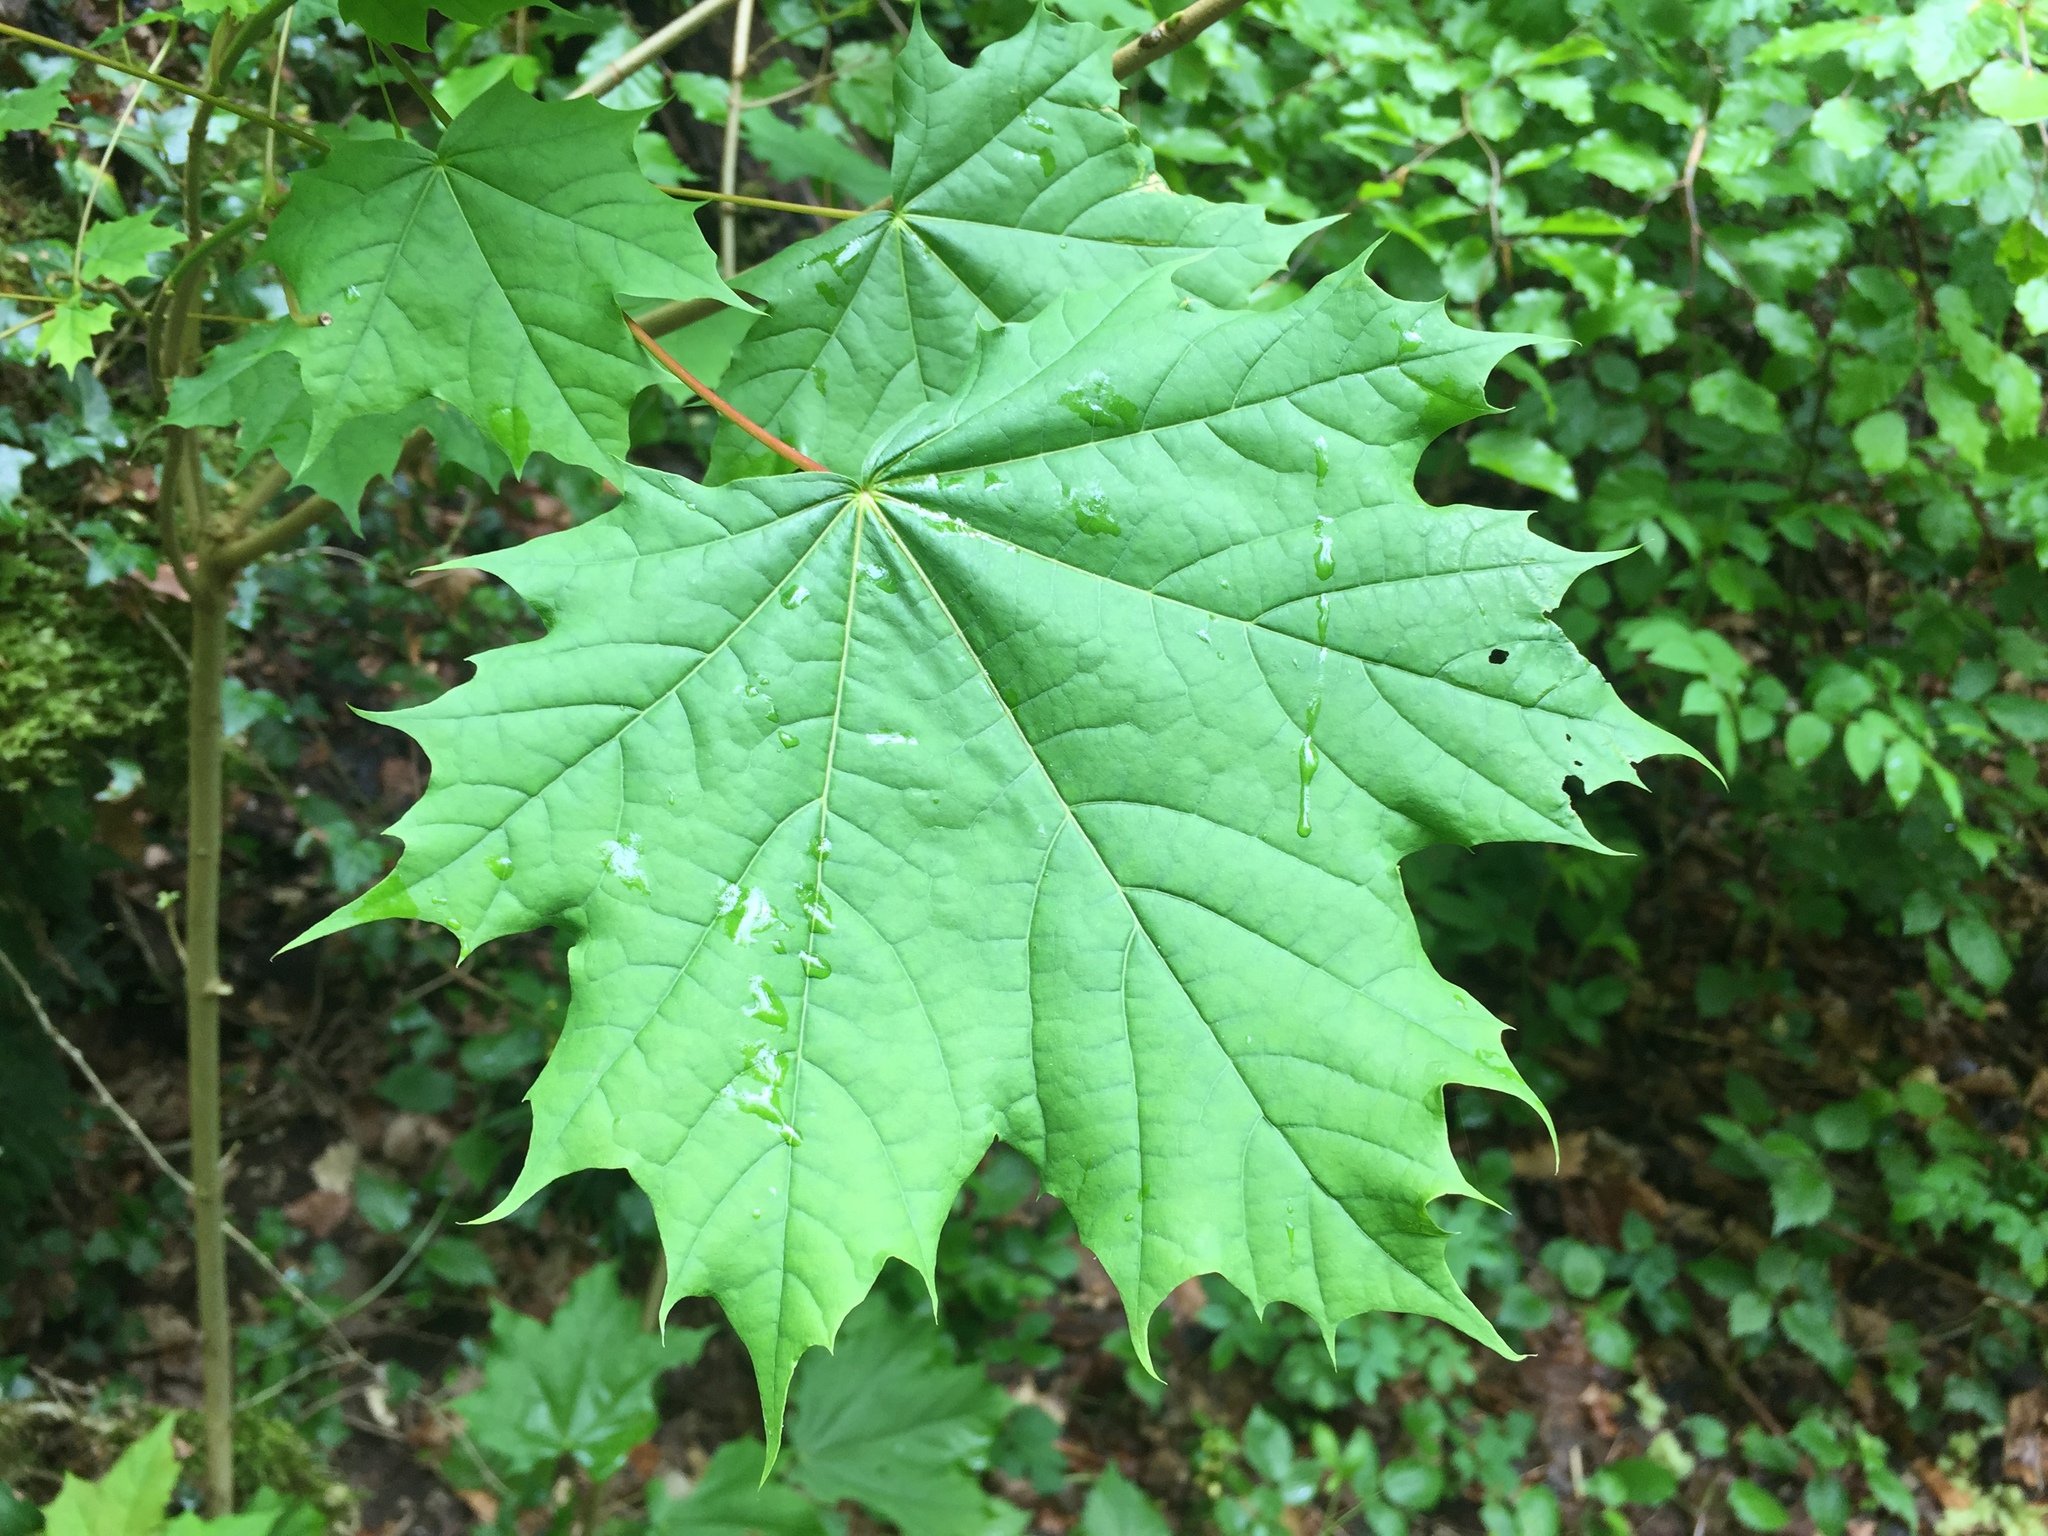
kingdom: Plantae
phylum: Tracheophyta
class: Magnoliopsida
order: Sapindales
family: Sapindaceae
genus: Acer
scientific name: Acer platanoides
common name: Norway maple
